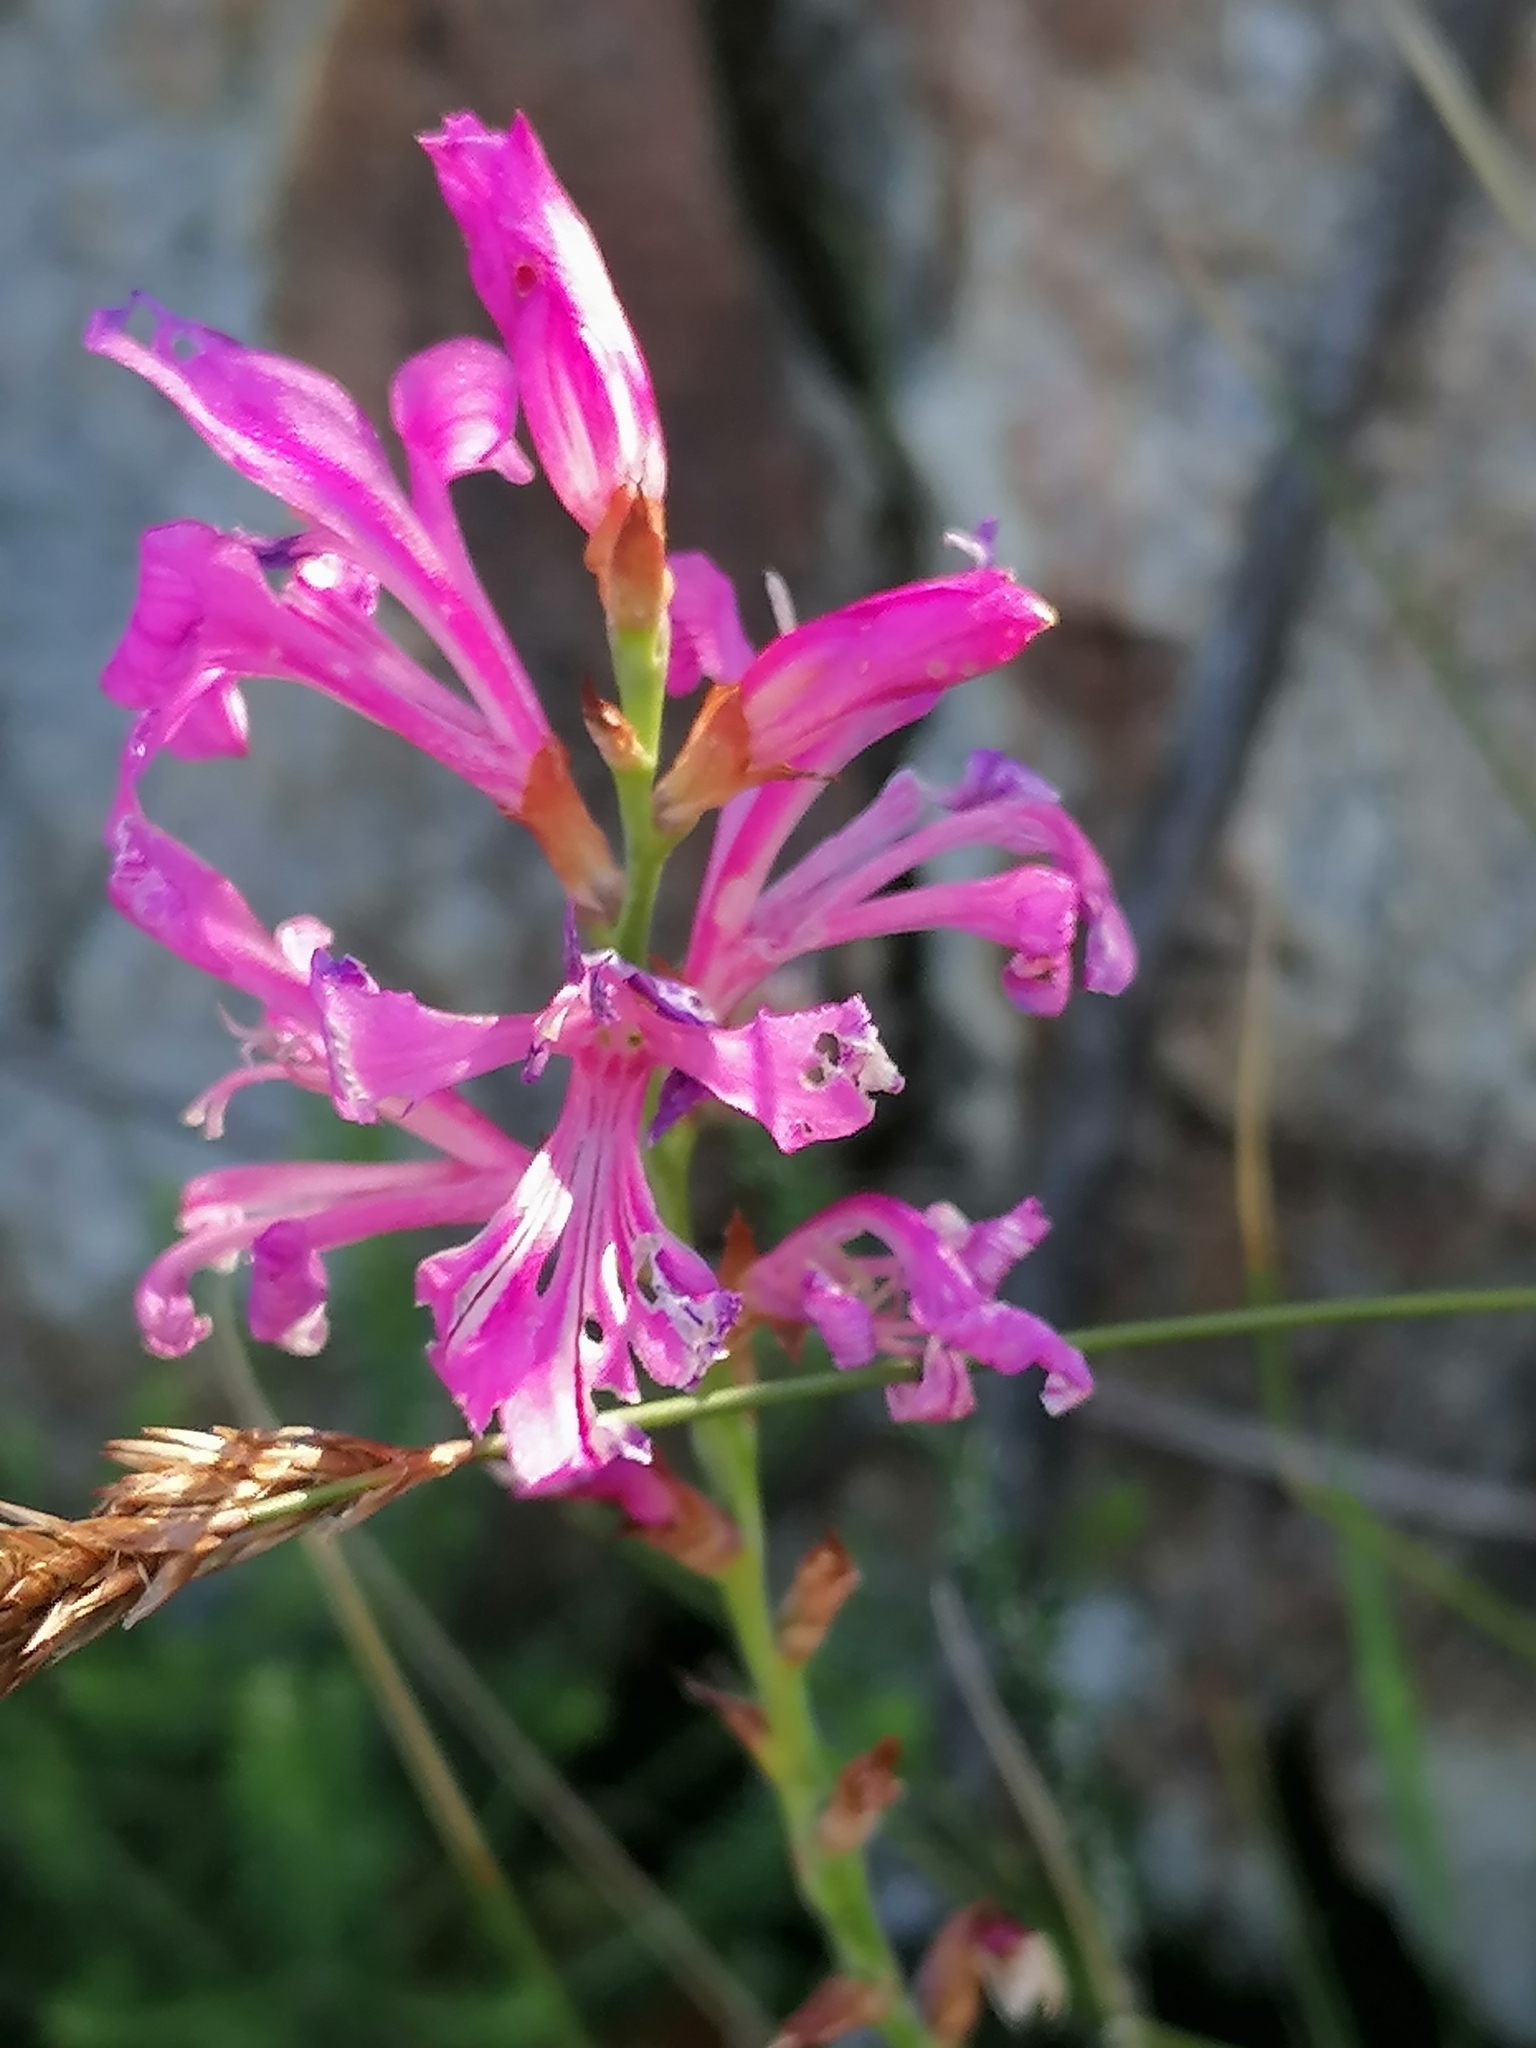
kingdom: Plantae
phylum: Tracheophyta
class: Liliopsida
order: Asparagales
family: Iridaceae
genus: Tritoniopsis
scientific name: Tritoniopsis lata
